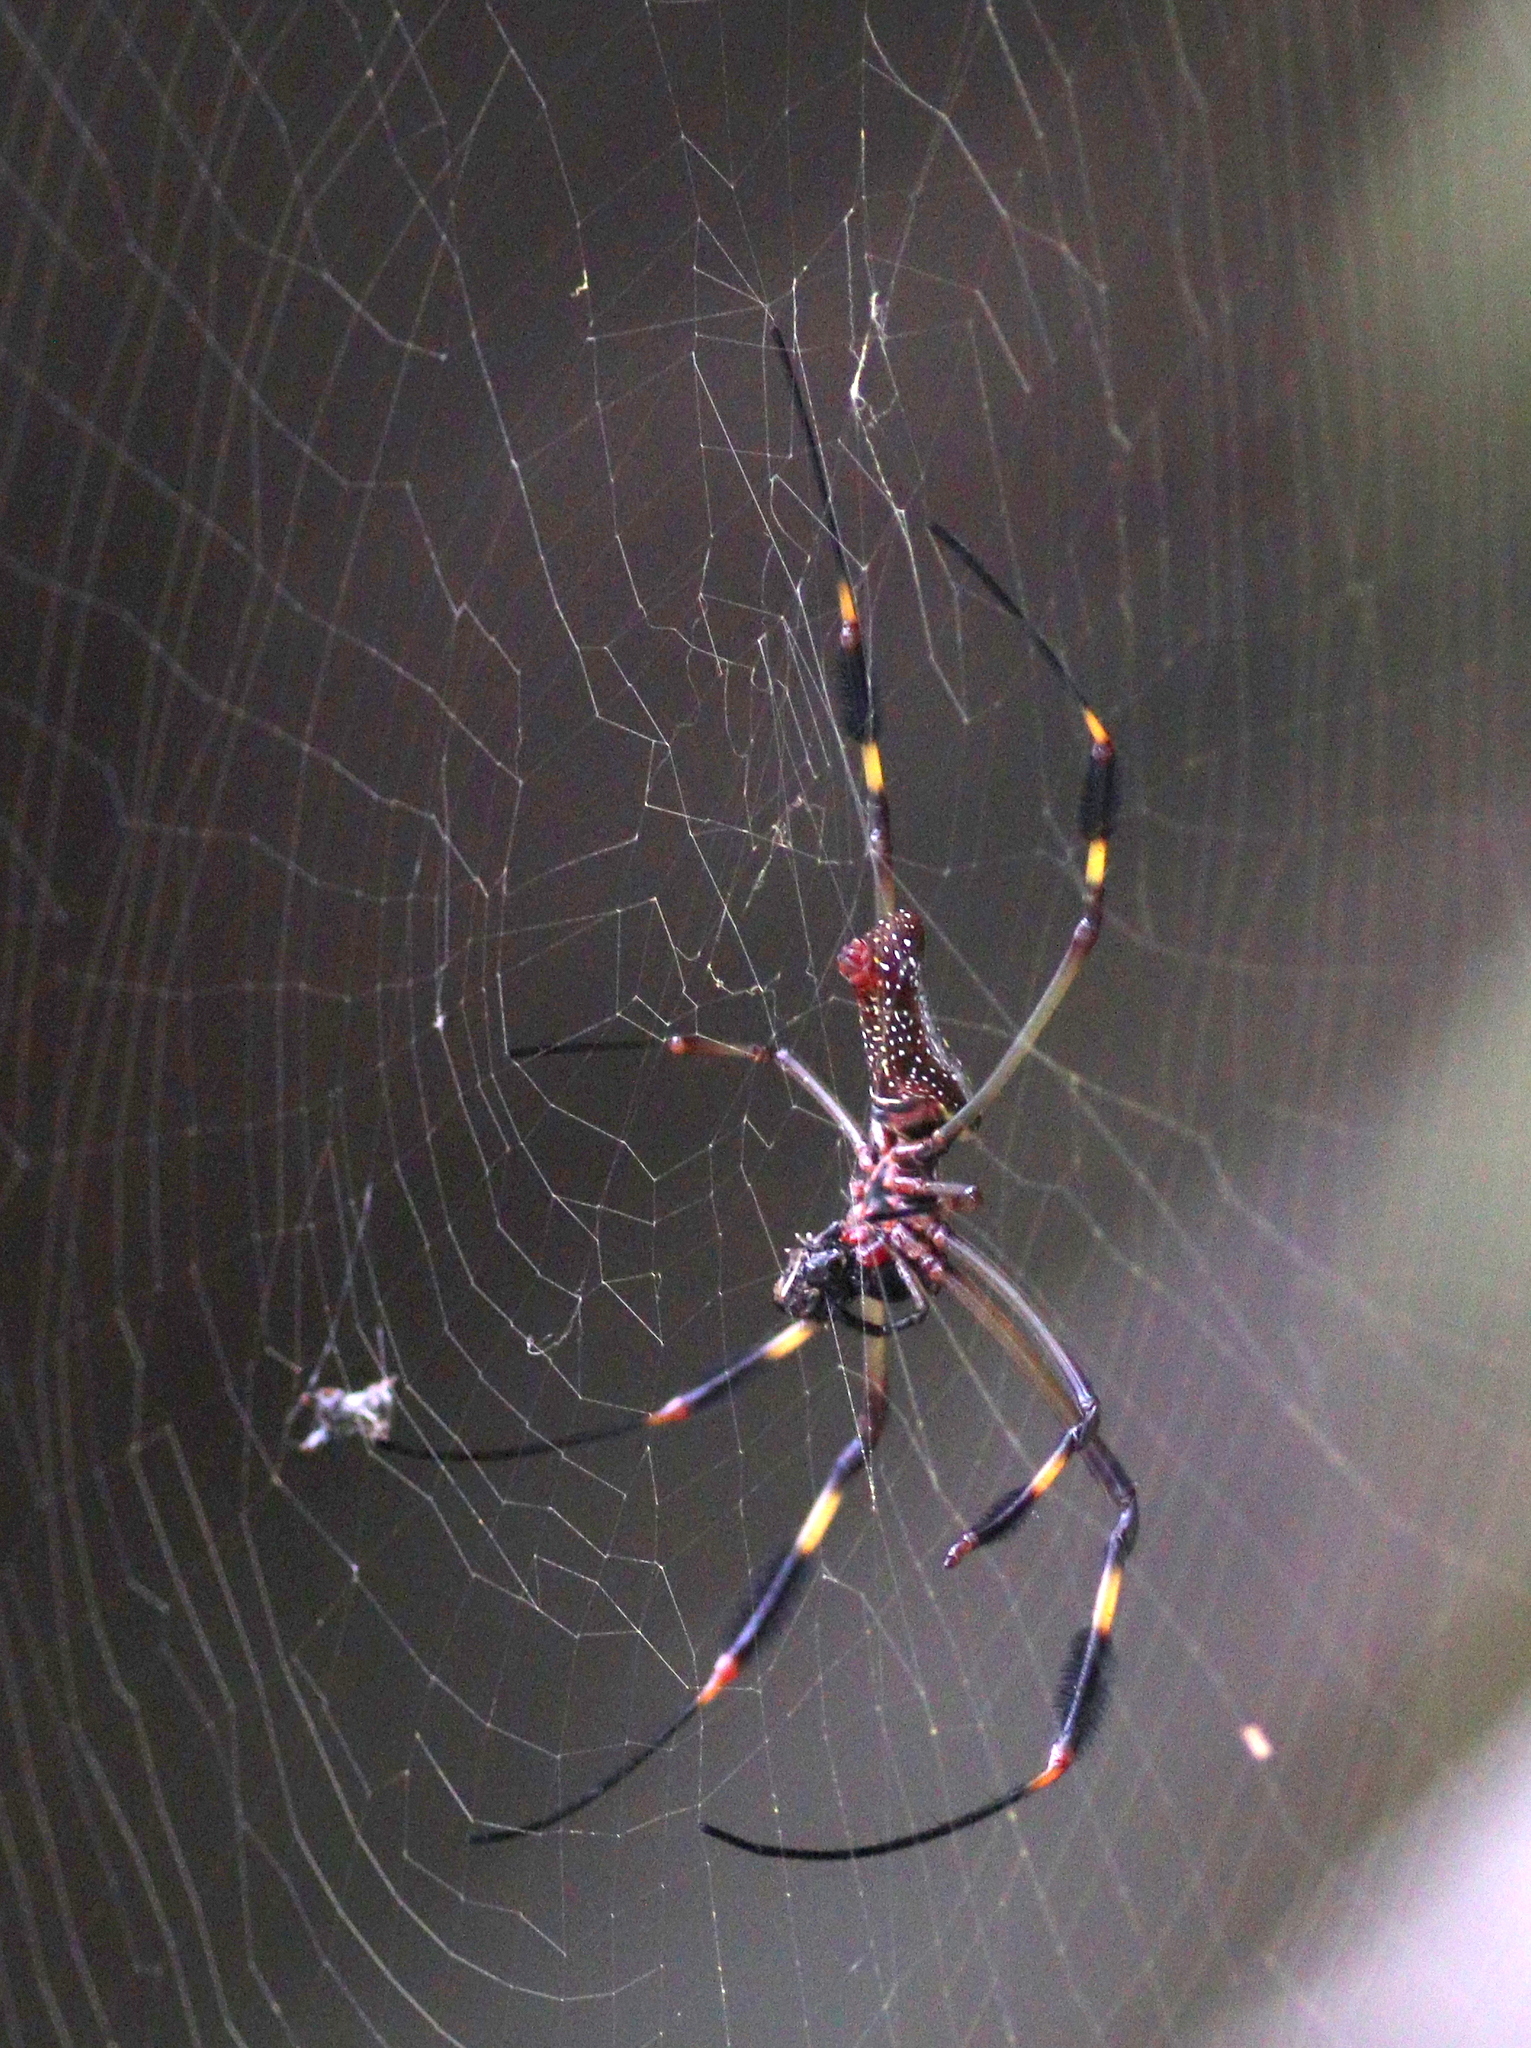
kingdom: Animalia
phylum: Arthropoda
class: Arachnida
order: Araneae
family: Araneidae
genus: Trichonephila
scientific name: Trichonephila clavipes
